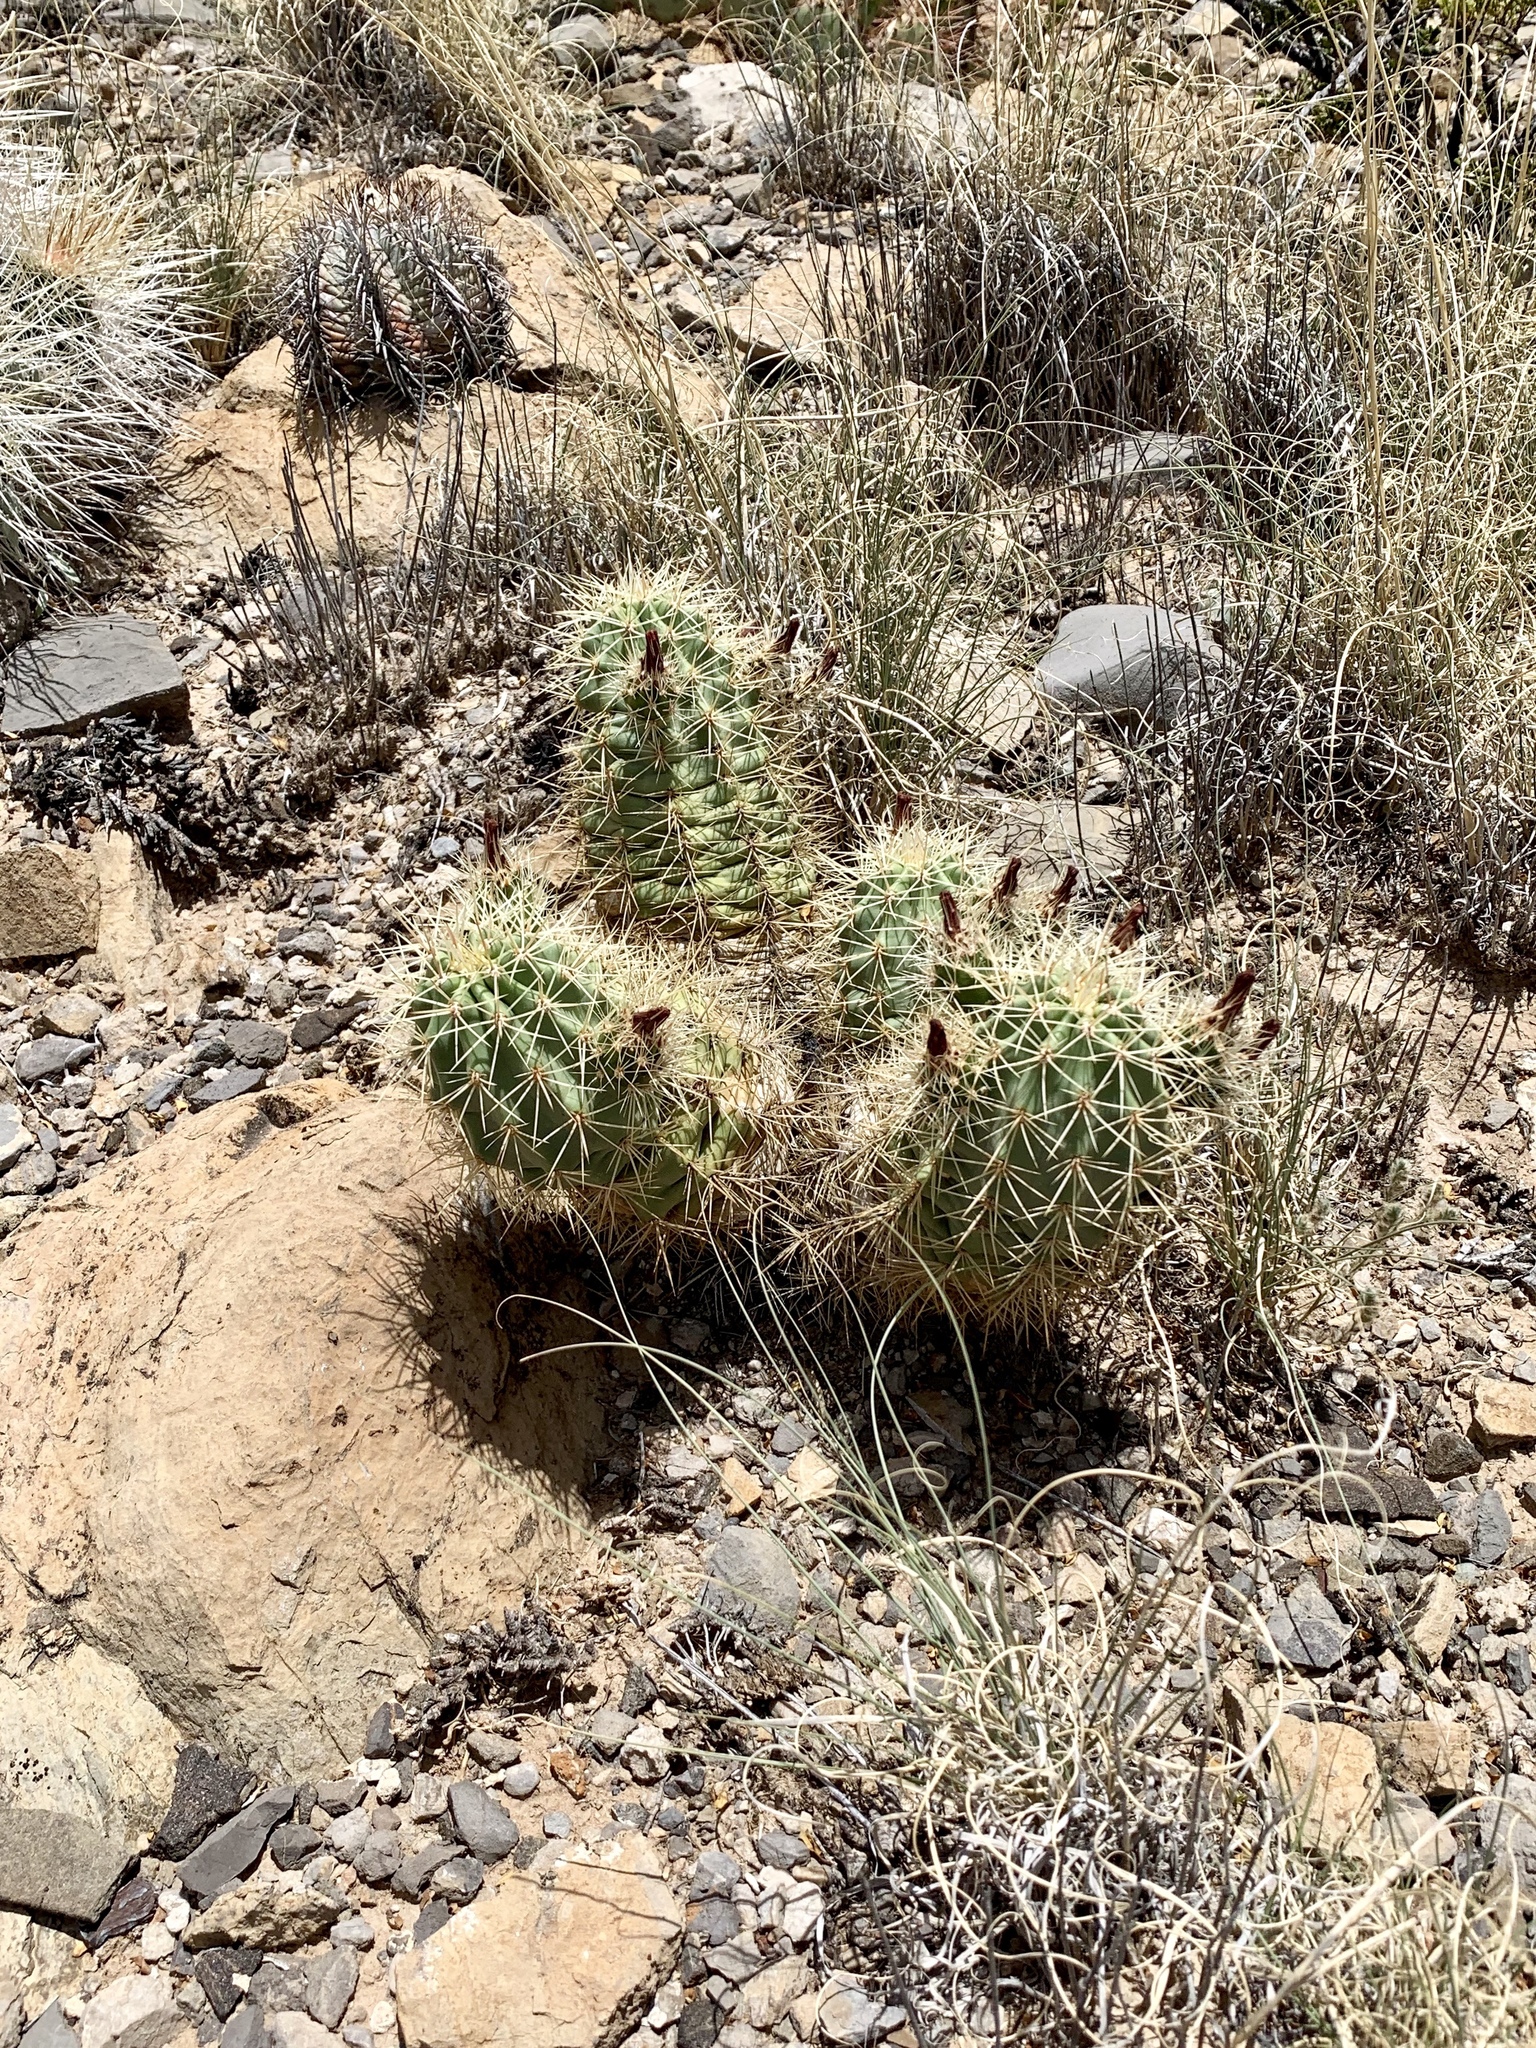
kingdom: Plantae
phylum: Tracheophyta
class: Magnoliopsida
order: Caryophyllales
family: Cactaceae
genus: Echinocereus
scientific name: Echinocereus coccineus
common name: Scarlet hedgehog cactus
